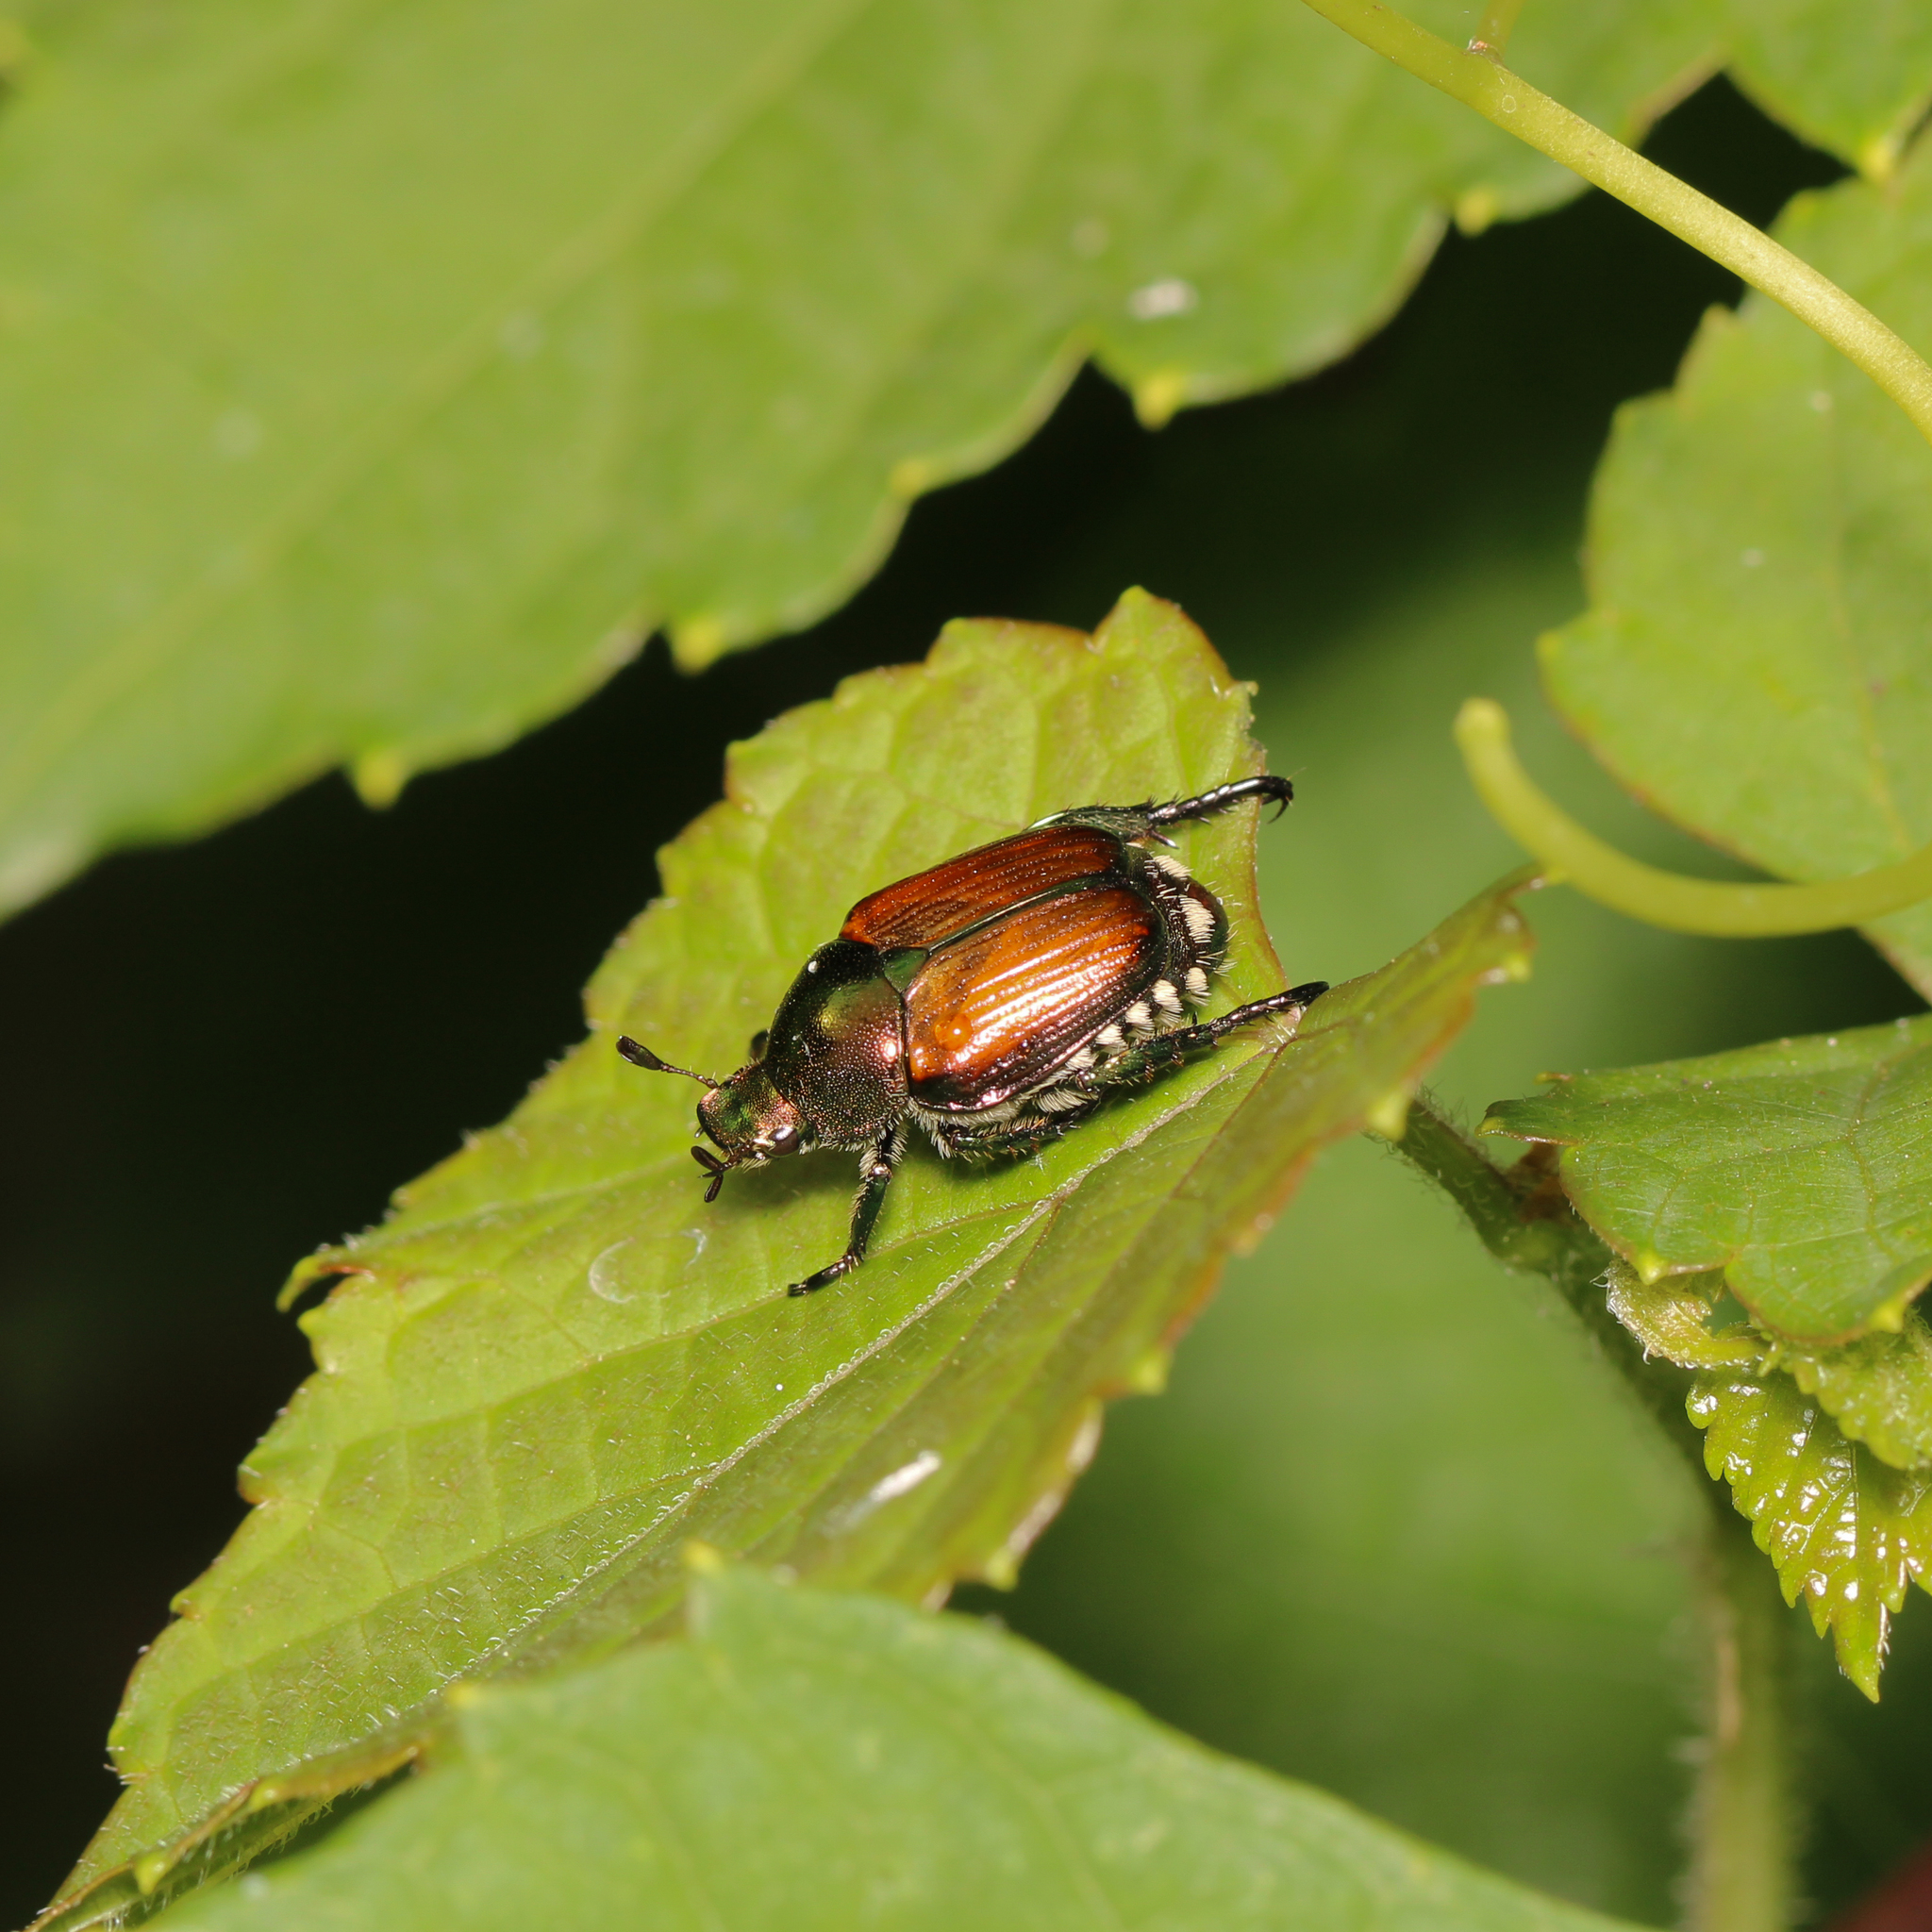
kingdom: Animalia
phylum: Arthropoda
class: Insecta
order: Coleoptera
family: Scarabaeidae
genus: Popillia
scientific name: Popillia japonica
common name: Japanese beetle
